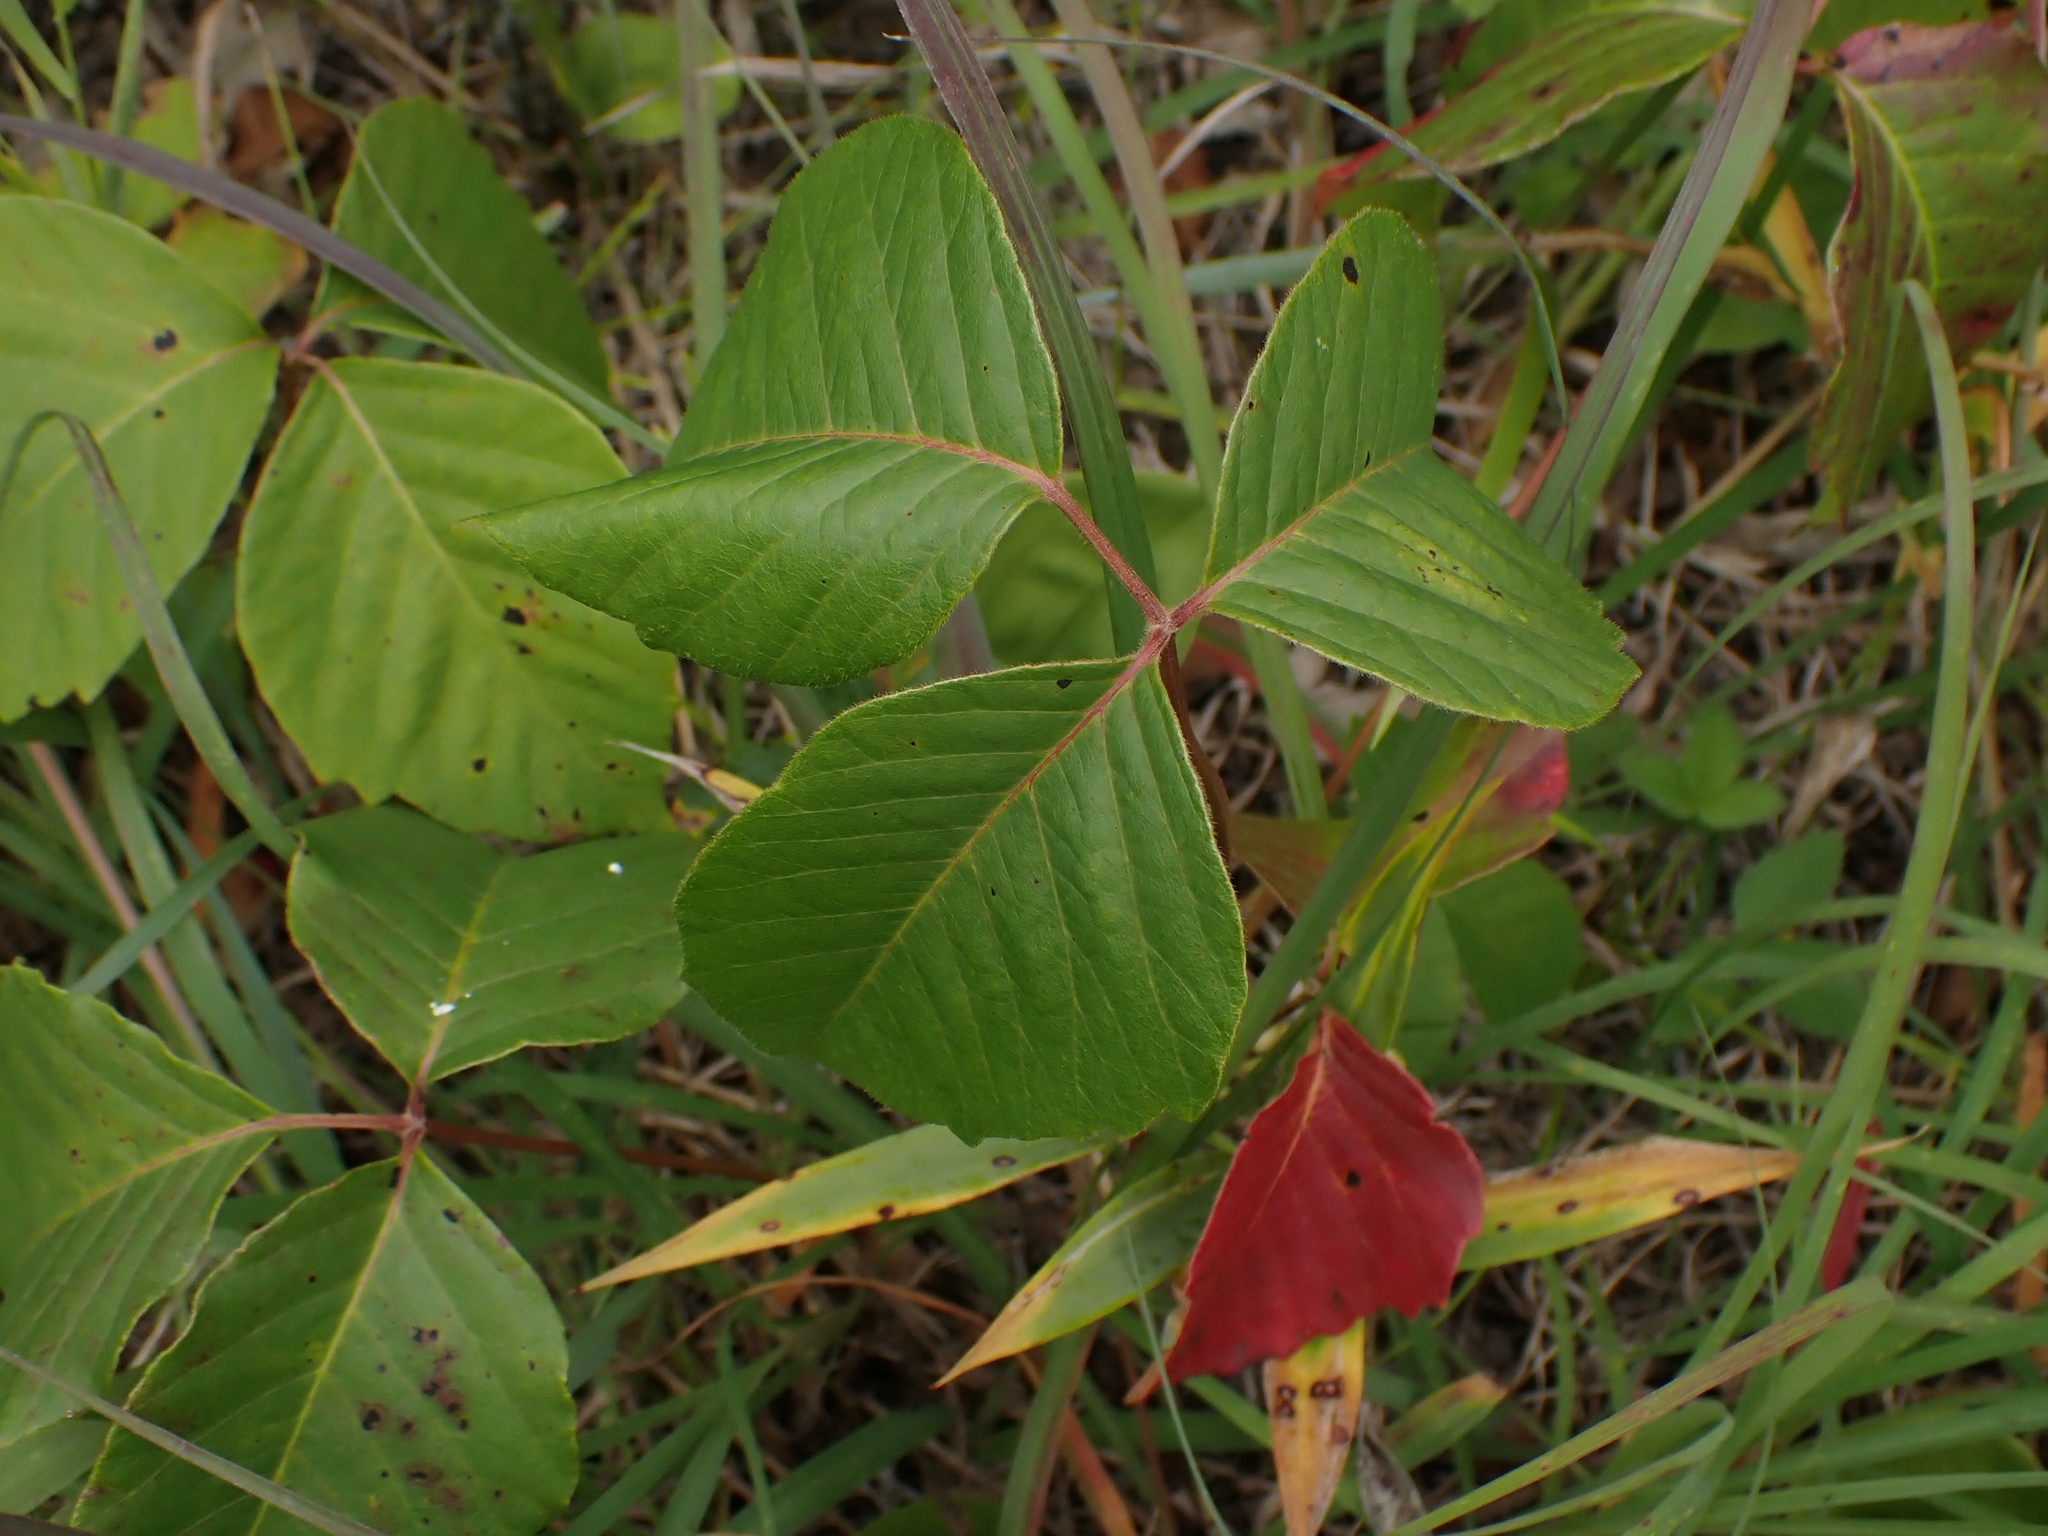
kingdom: Plantae
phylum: Tracheophyta
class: Magnoliopsida
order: Sapindales
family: Anacardiaceae
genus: Toxicodendron
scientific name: Toxicodendron rydbergii
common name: Rydberg's poison-ivy
